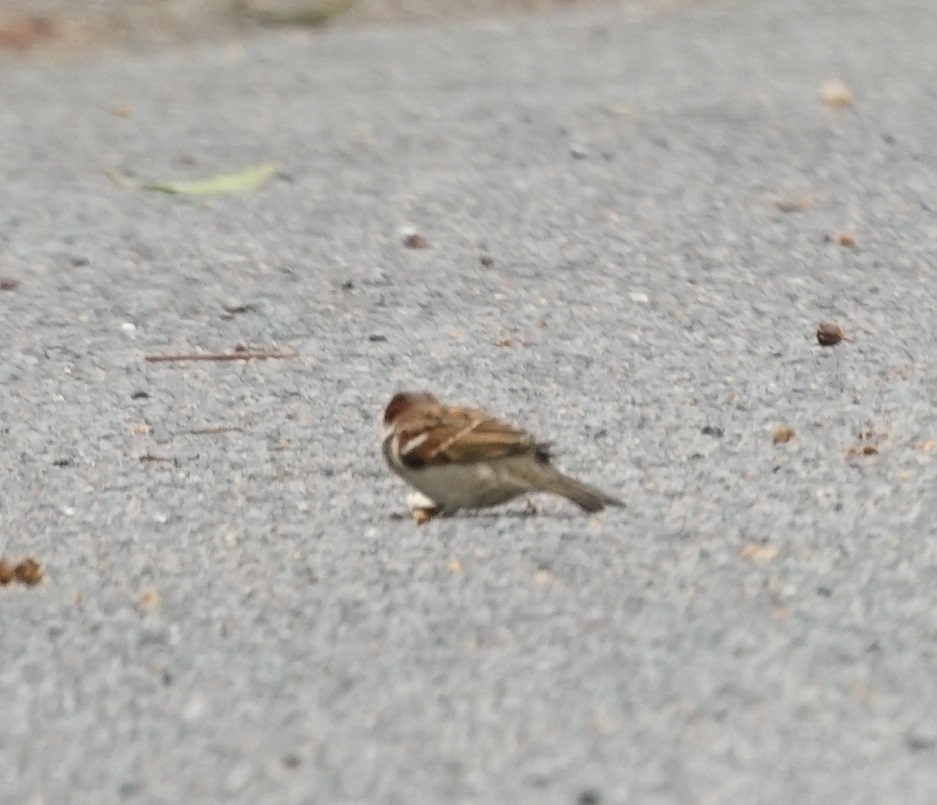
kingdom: Animalia
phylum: Chordata
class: Aves
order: Passeriformes
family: Passeridae
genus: Passer
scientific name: Passer domesticus
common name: House sparrow
